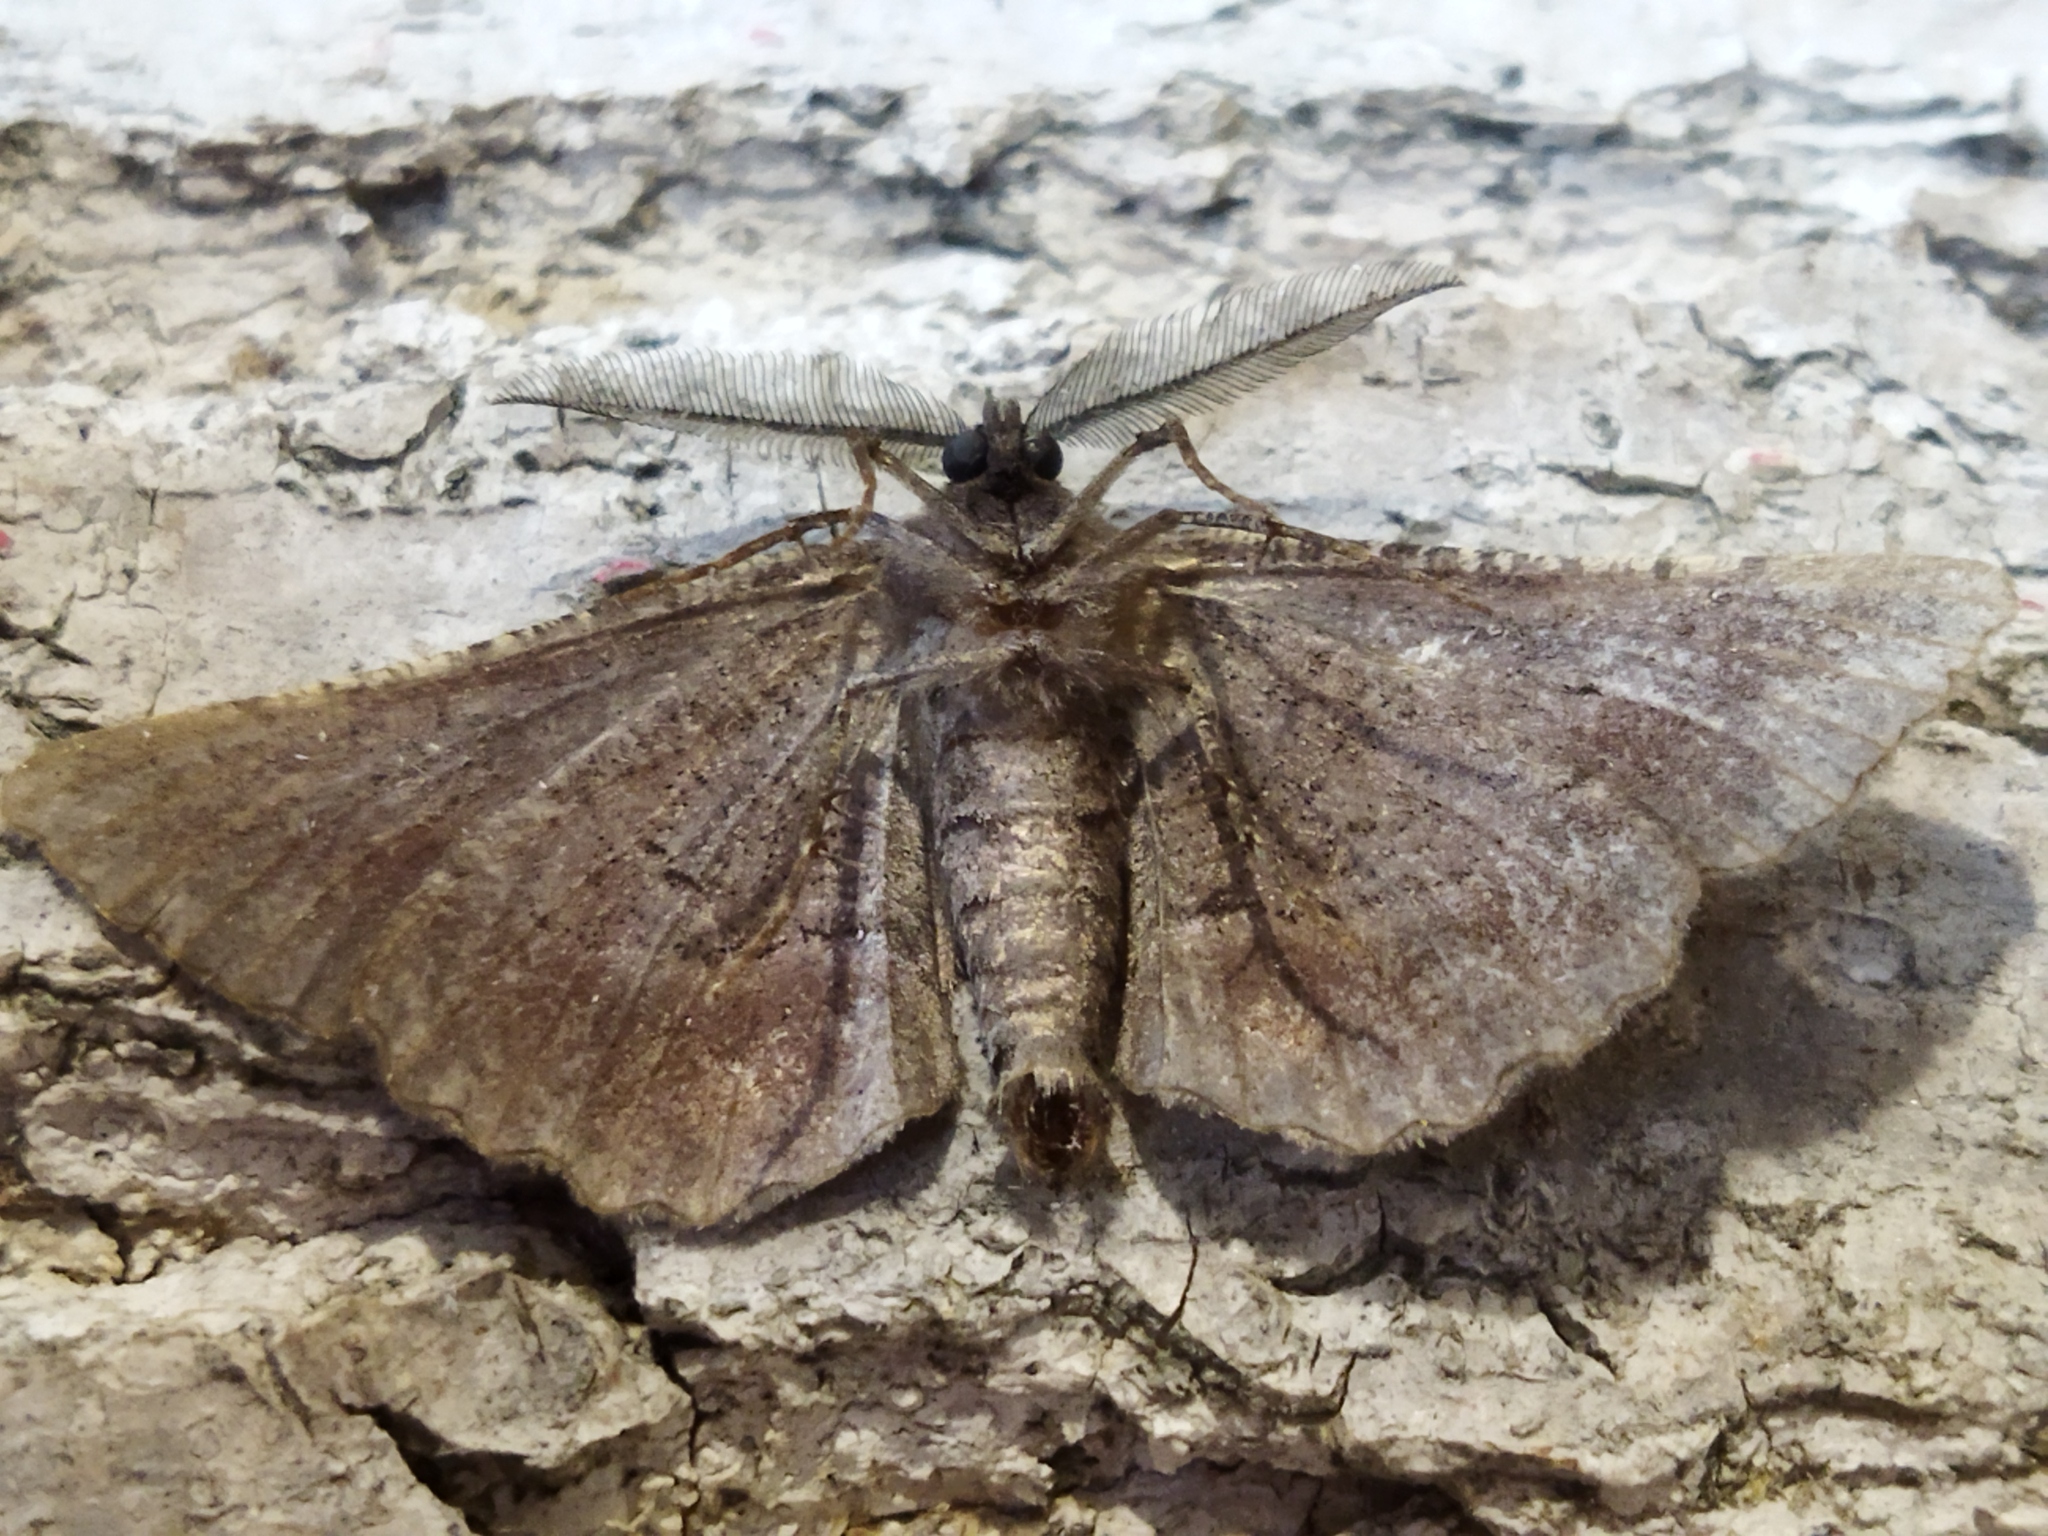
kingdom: Animalia
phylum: Arthropoda
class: Insecta
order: Lepidoptera
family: Geometridae
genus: Nychiodes
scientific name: Nychiodes waltheri
